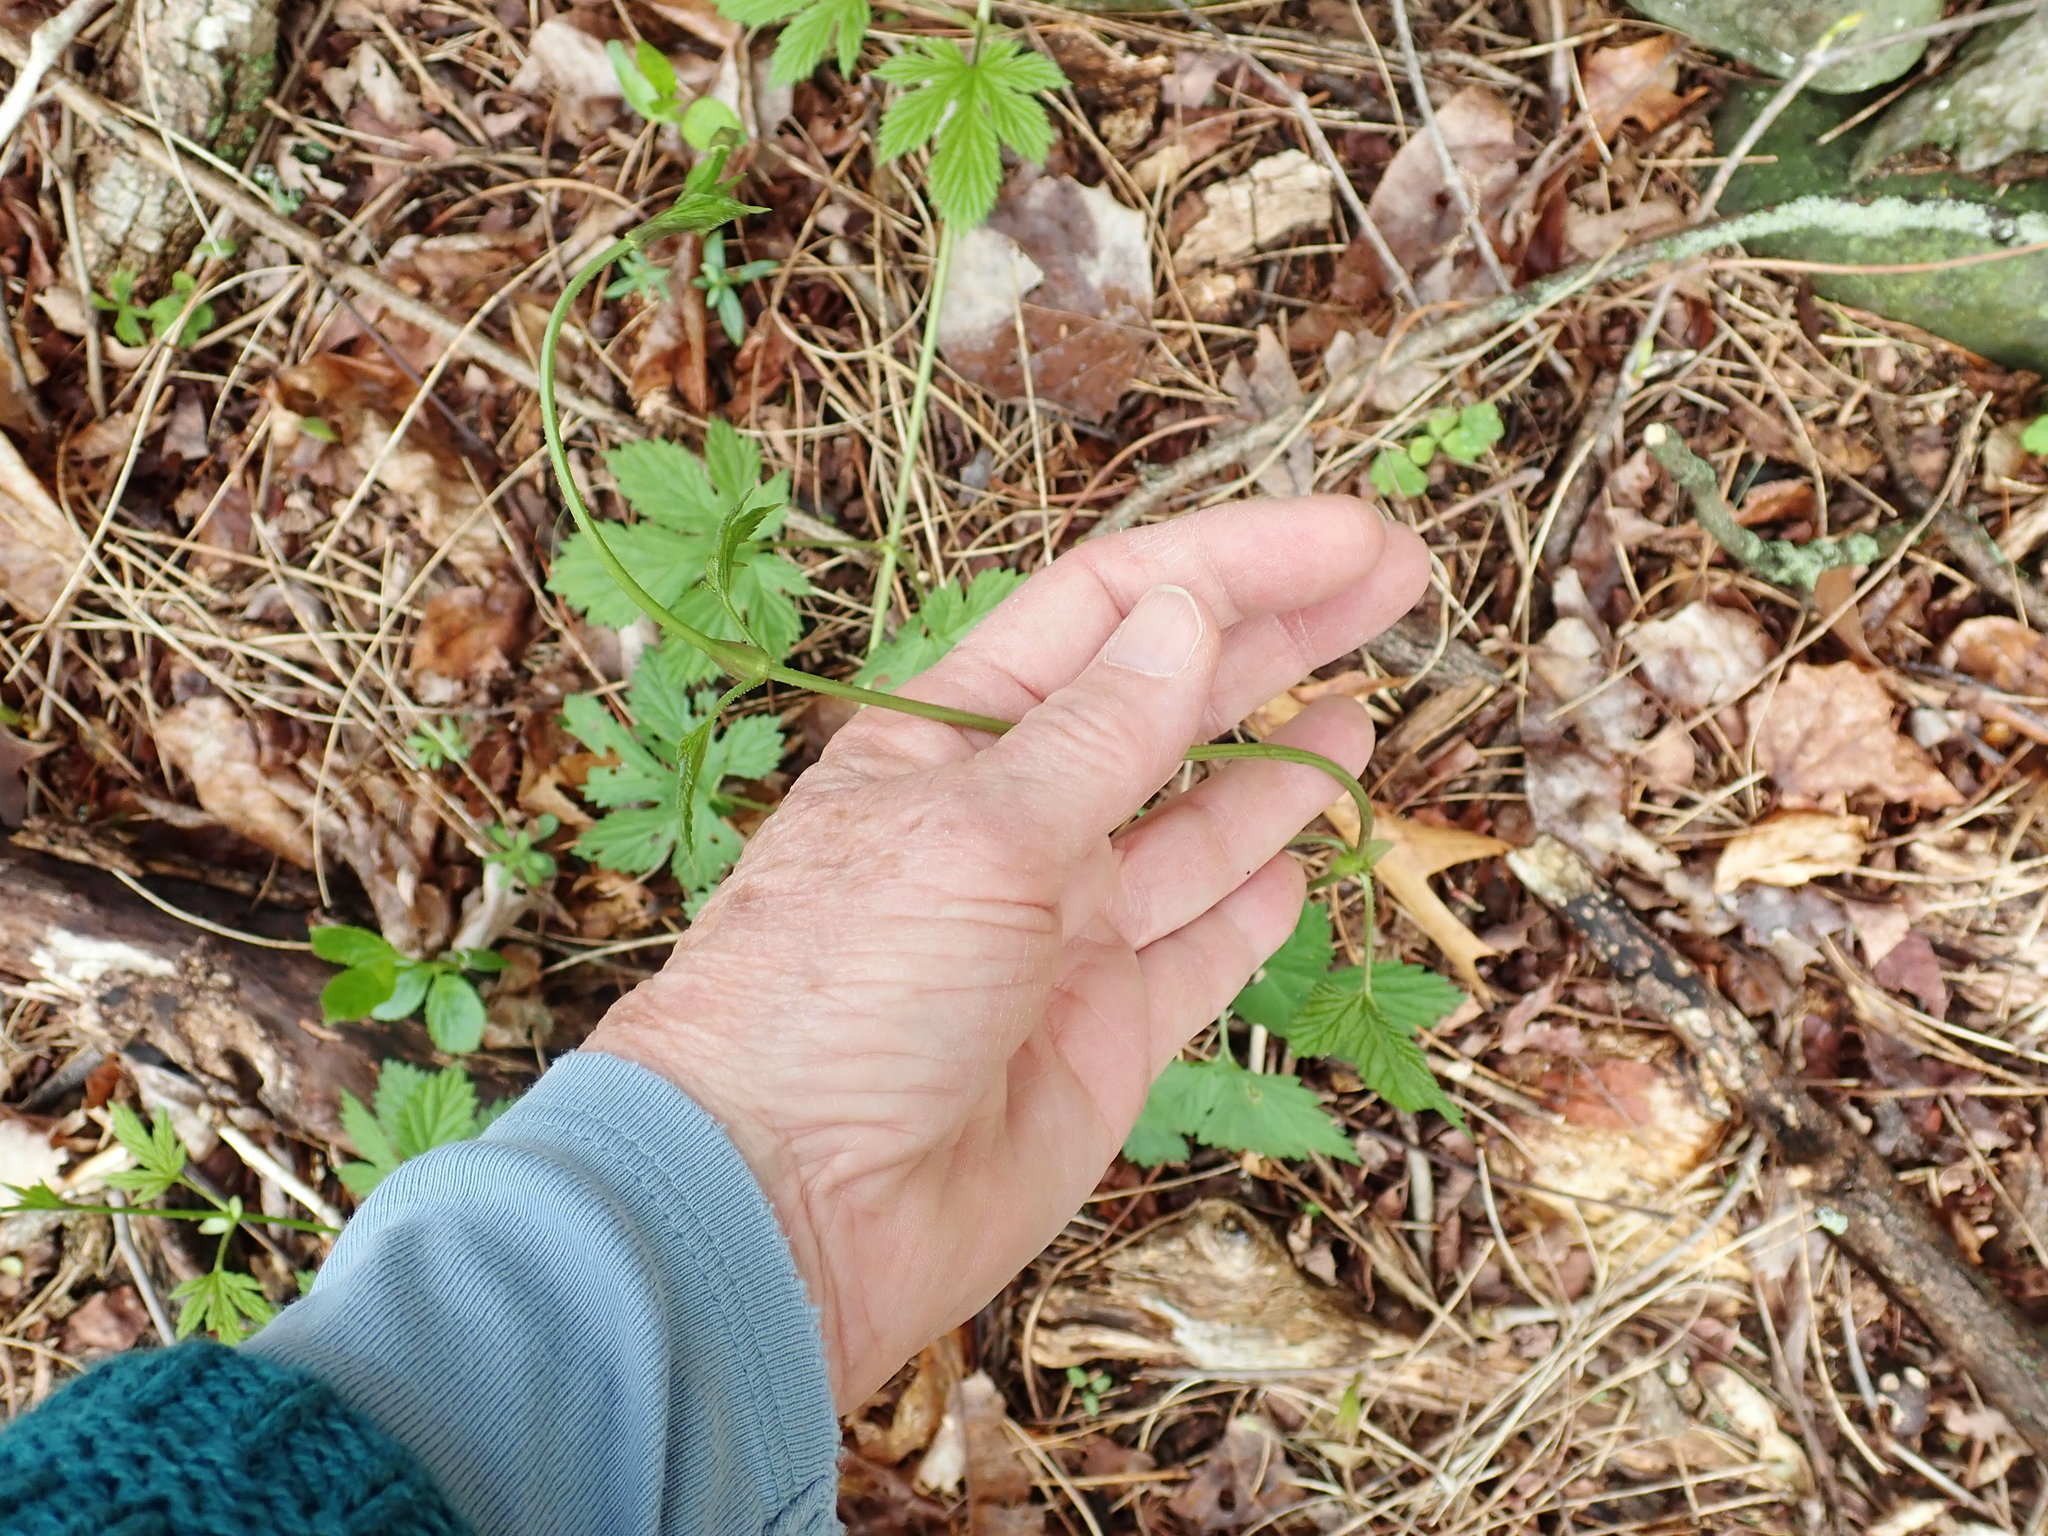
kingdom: Plantae
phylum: Tracheophyta
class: Magnoliopsida
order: Rosales
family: Cannabaceae
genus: Humulus
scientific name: Humulus lupulus
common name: Hop
